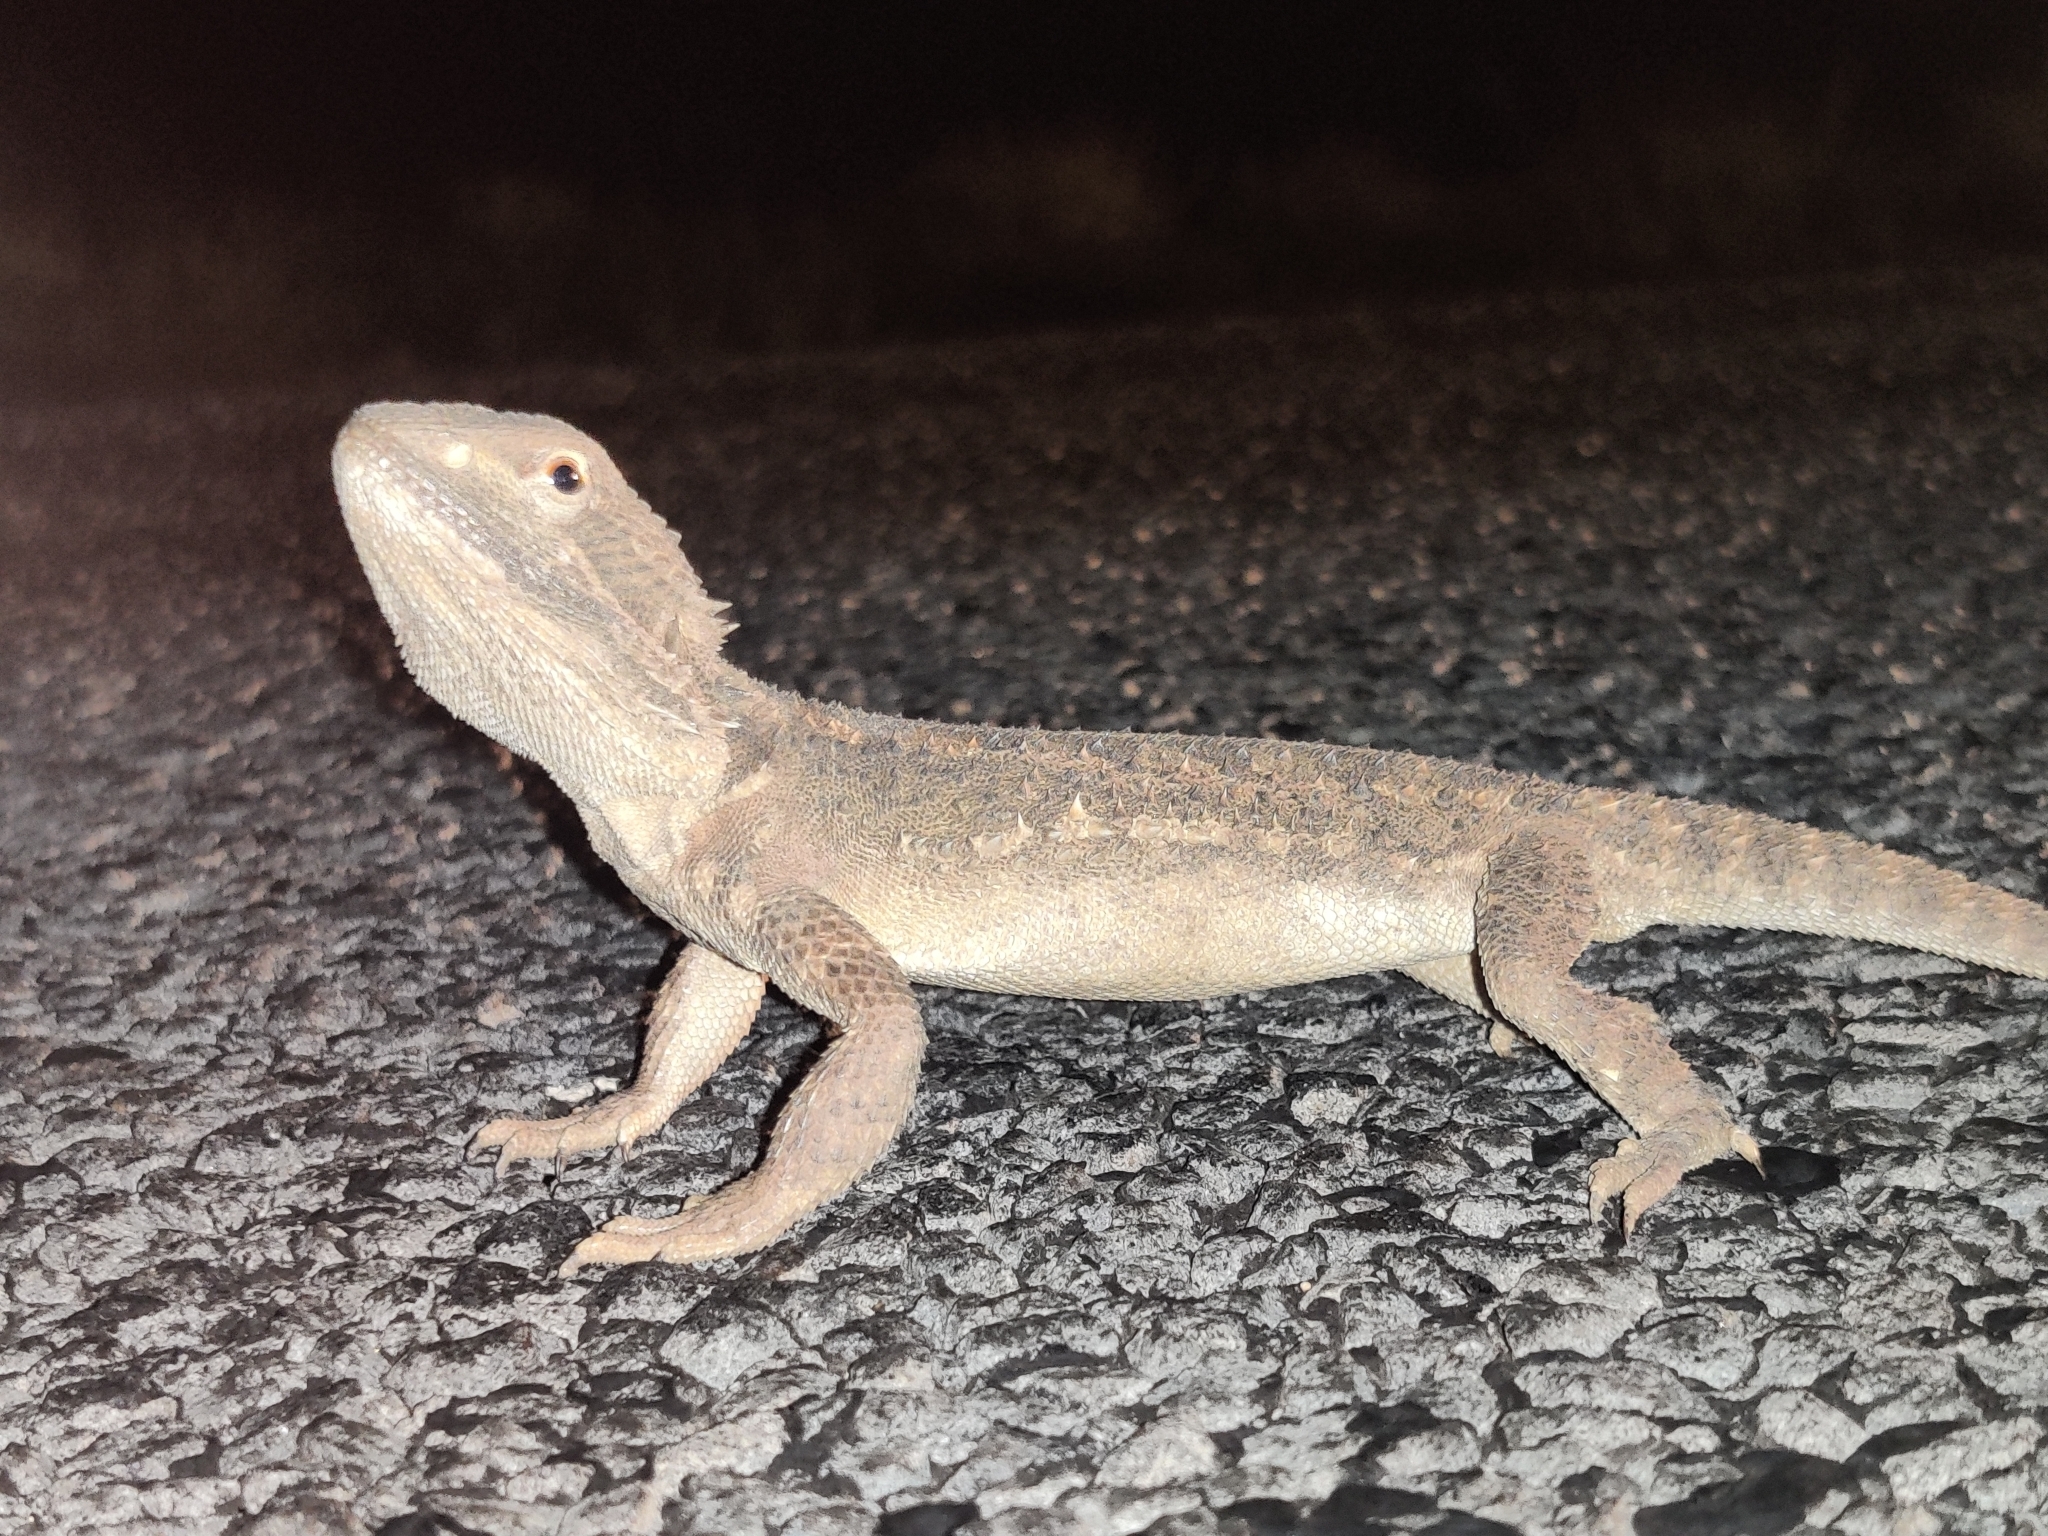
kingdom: Animalia
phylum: Chordata
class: Squamata
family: Agamidae
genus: Pogona
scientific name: Pogona henrylawsoni
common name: Black-soil bearded dragon
